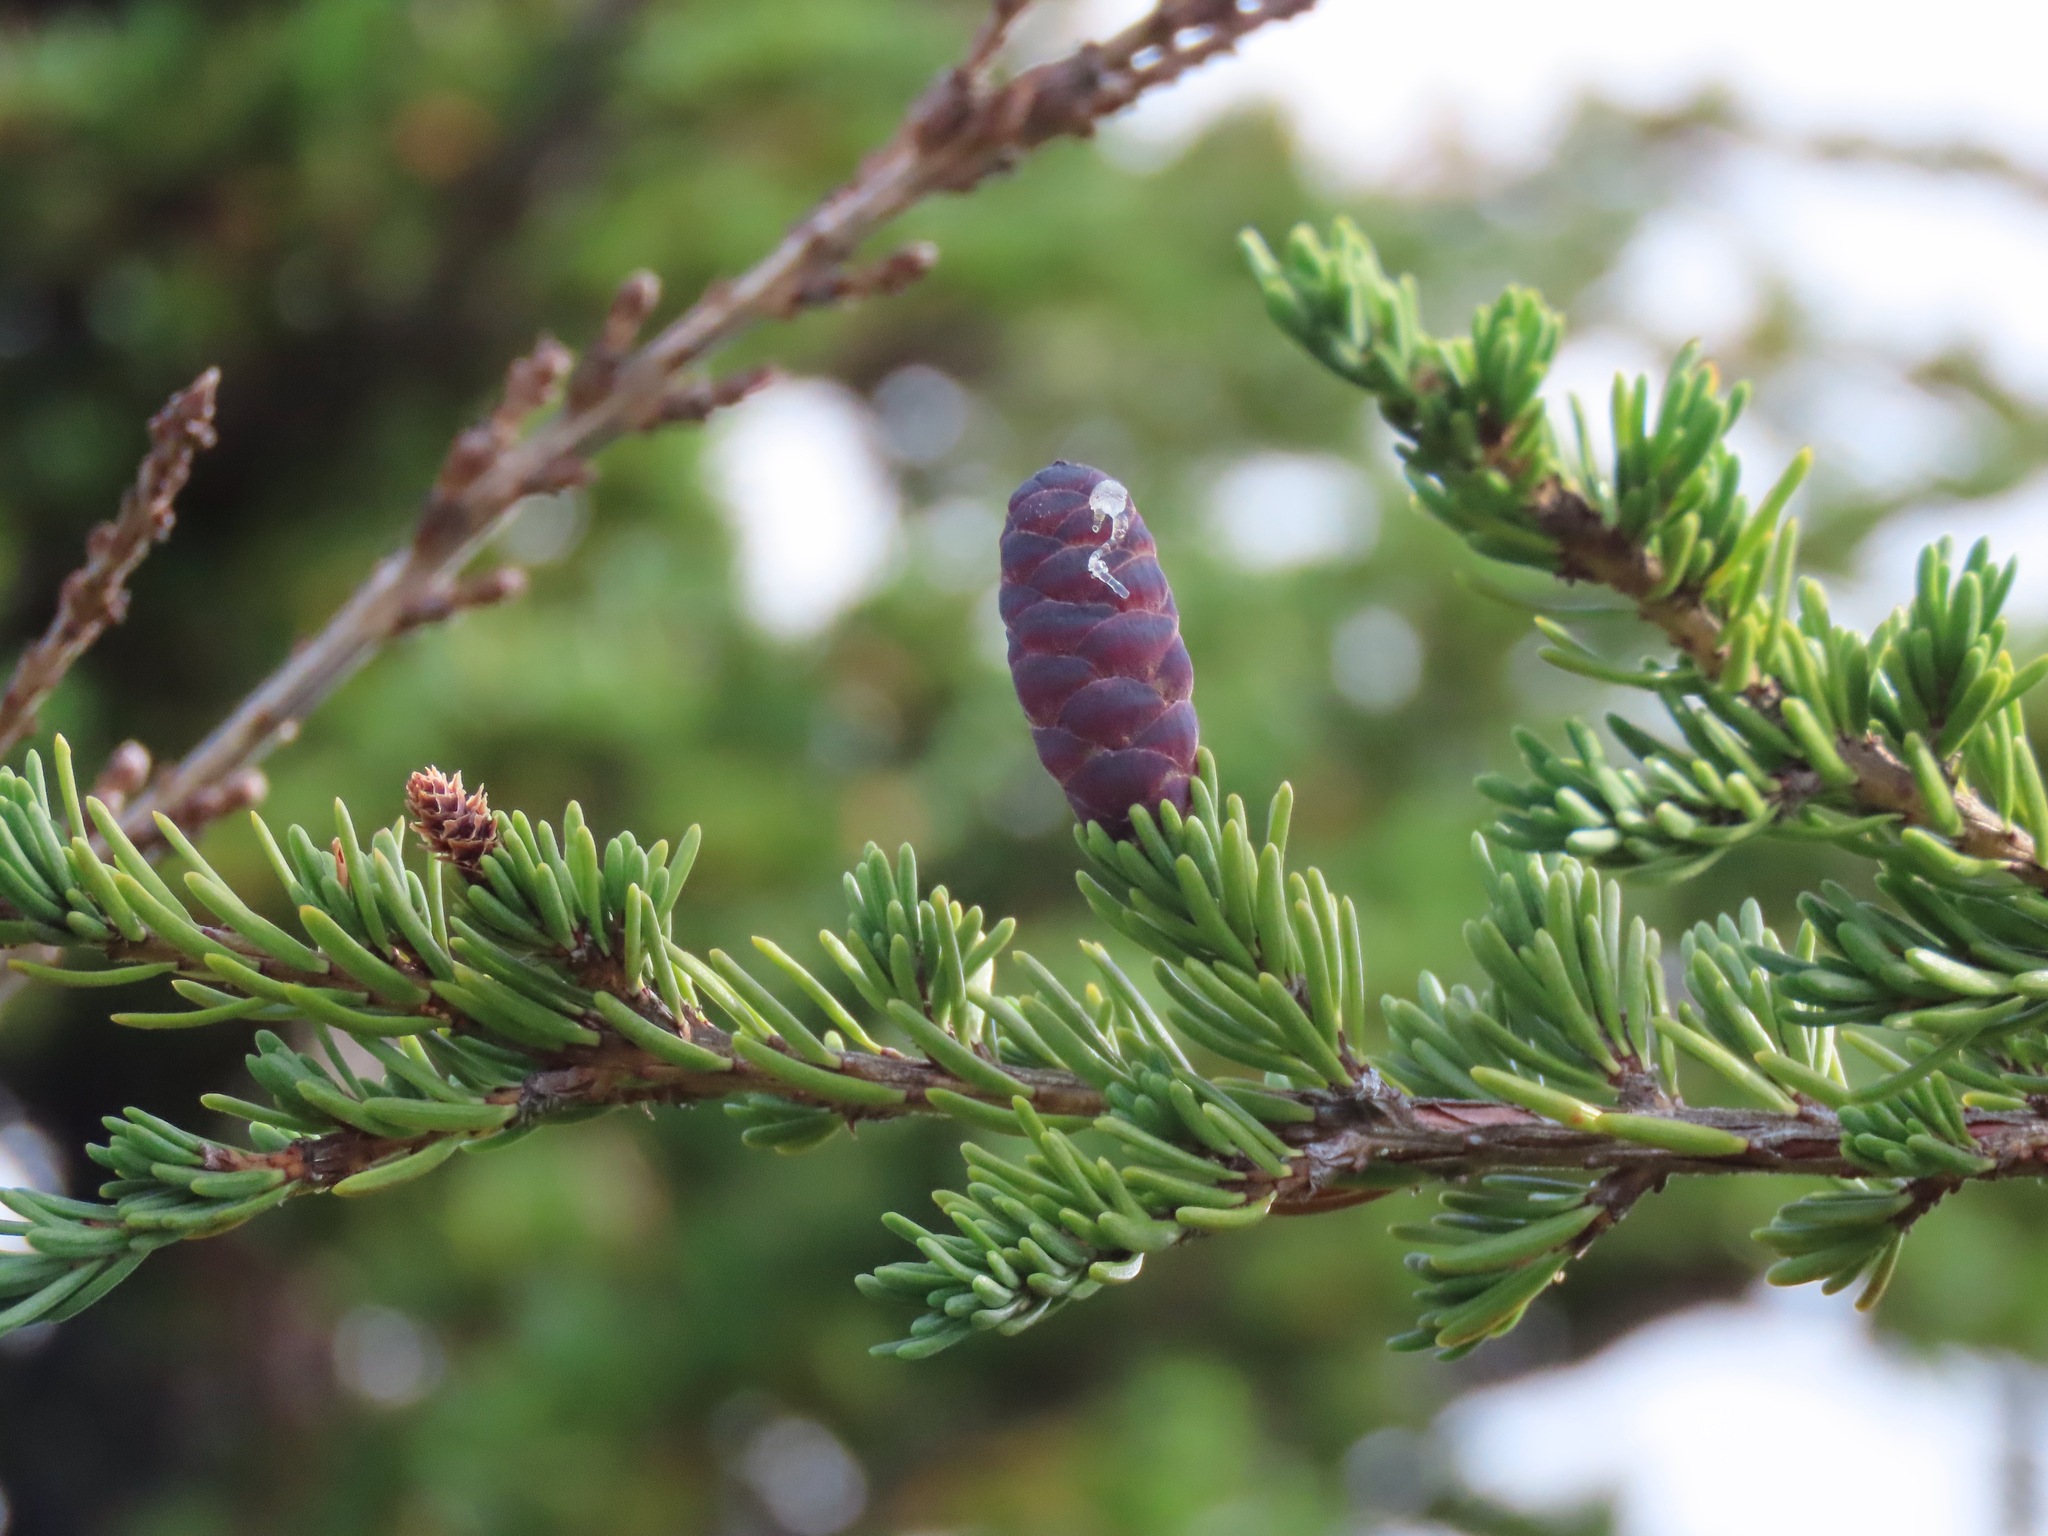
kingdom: Plantae
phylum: Tracheophyta
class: Pinopsida
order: Pinales
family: Pinaceae
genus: Tsuga
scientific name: Tsuga mertensiana
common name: Mountain hemlock
